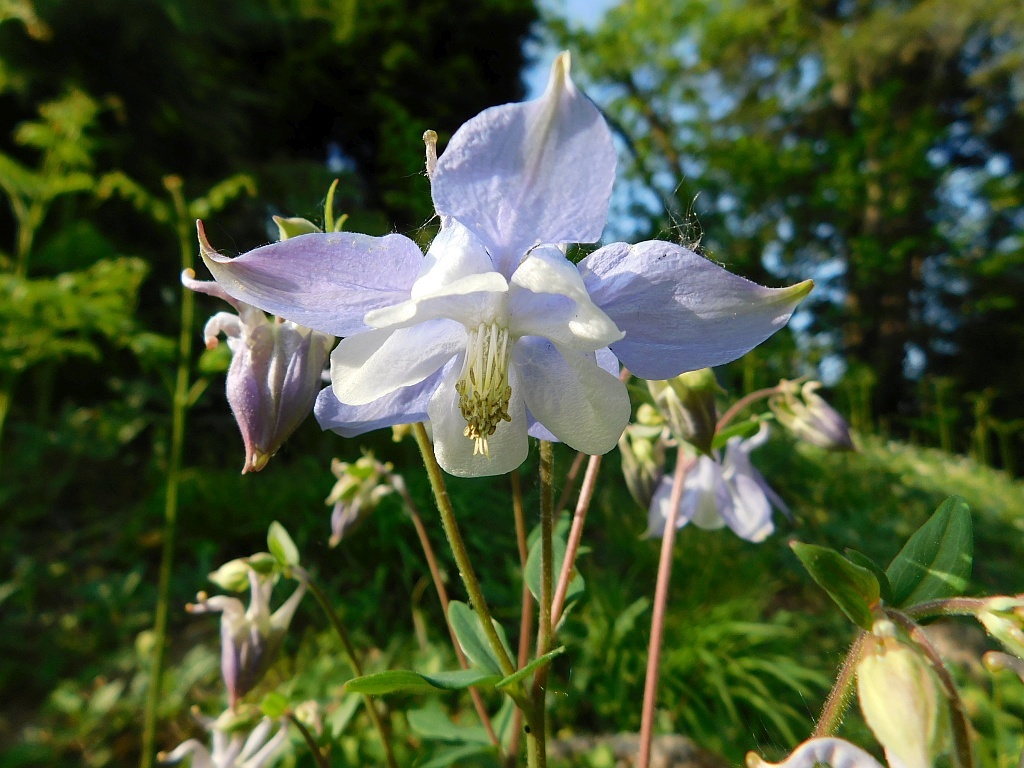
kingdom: Plantae
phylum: Tracheophyta
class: Magnoliopsida
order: Ranunculales
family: Ranunculaceae
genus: Aquilegia
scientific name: Aquilegia vulgaris
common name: Columbine
